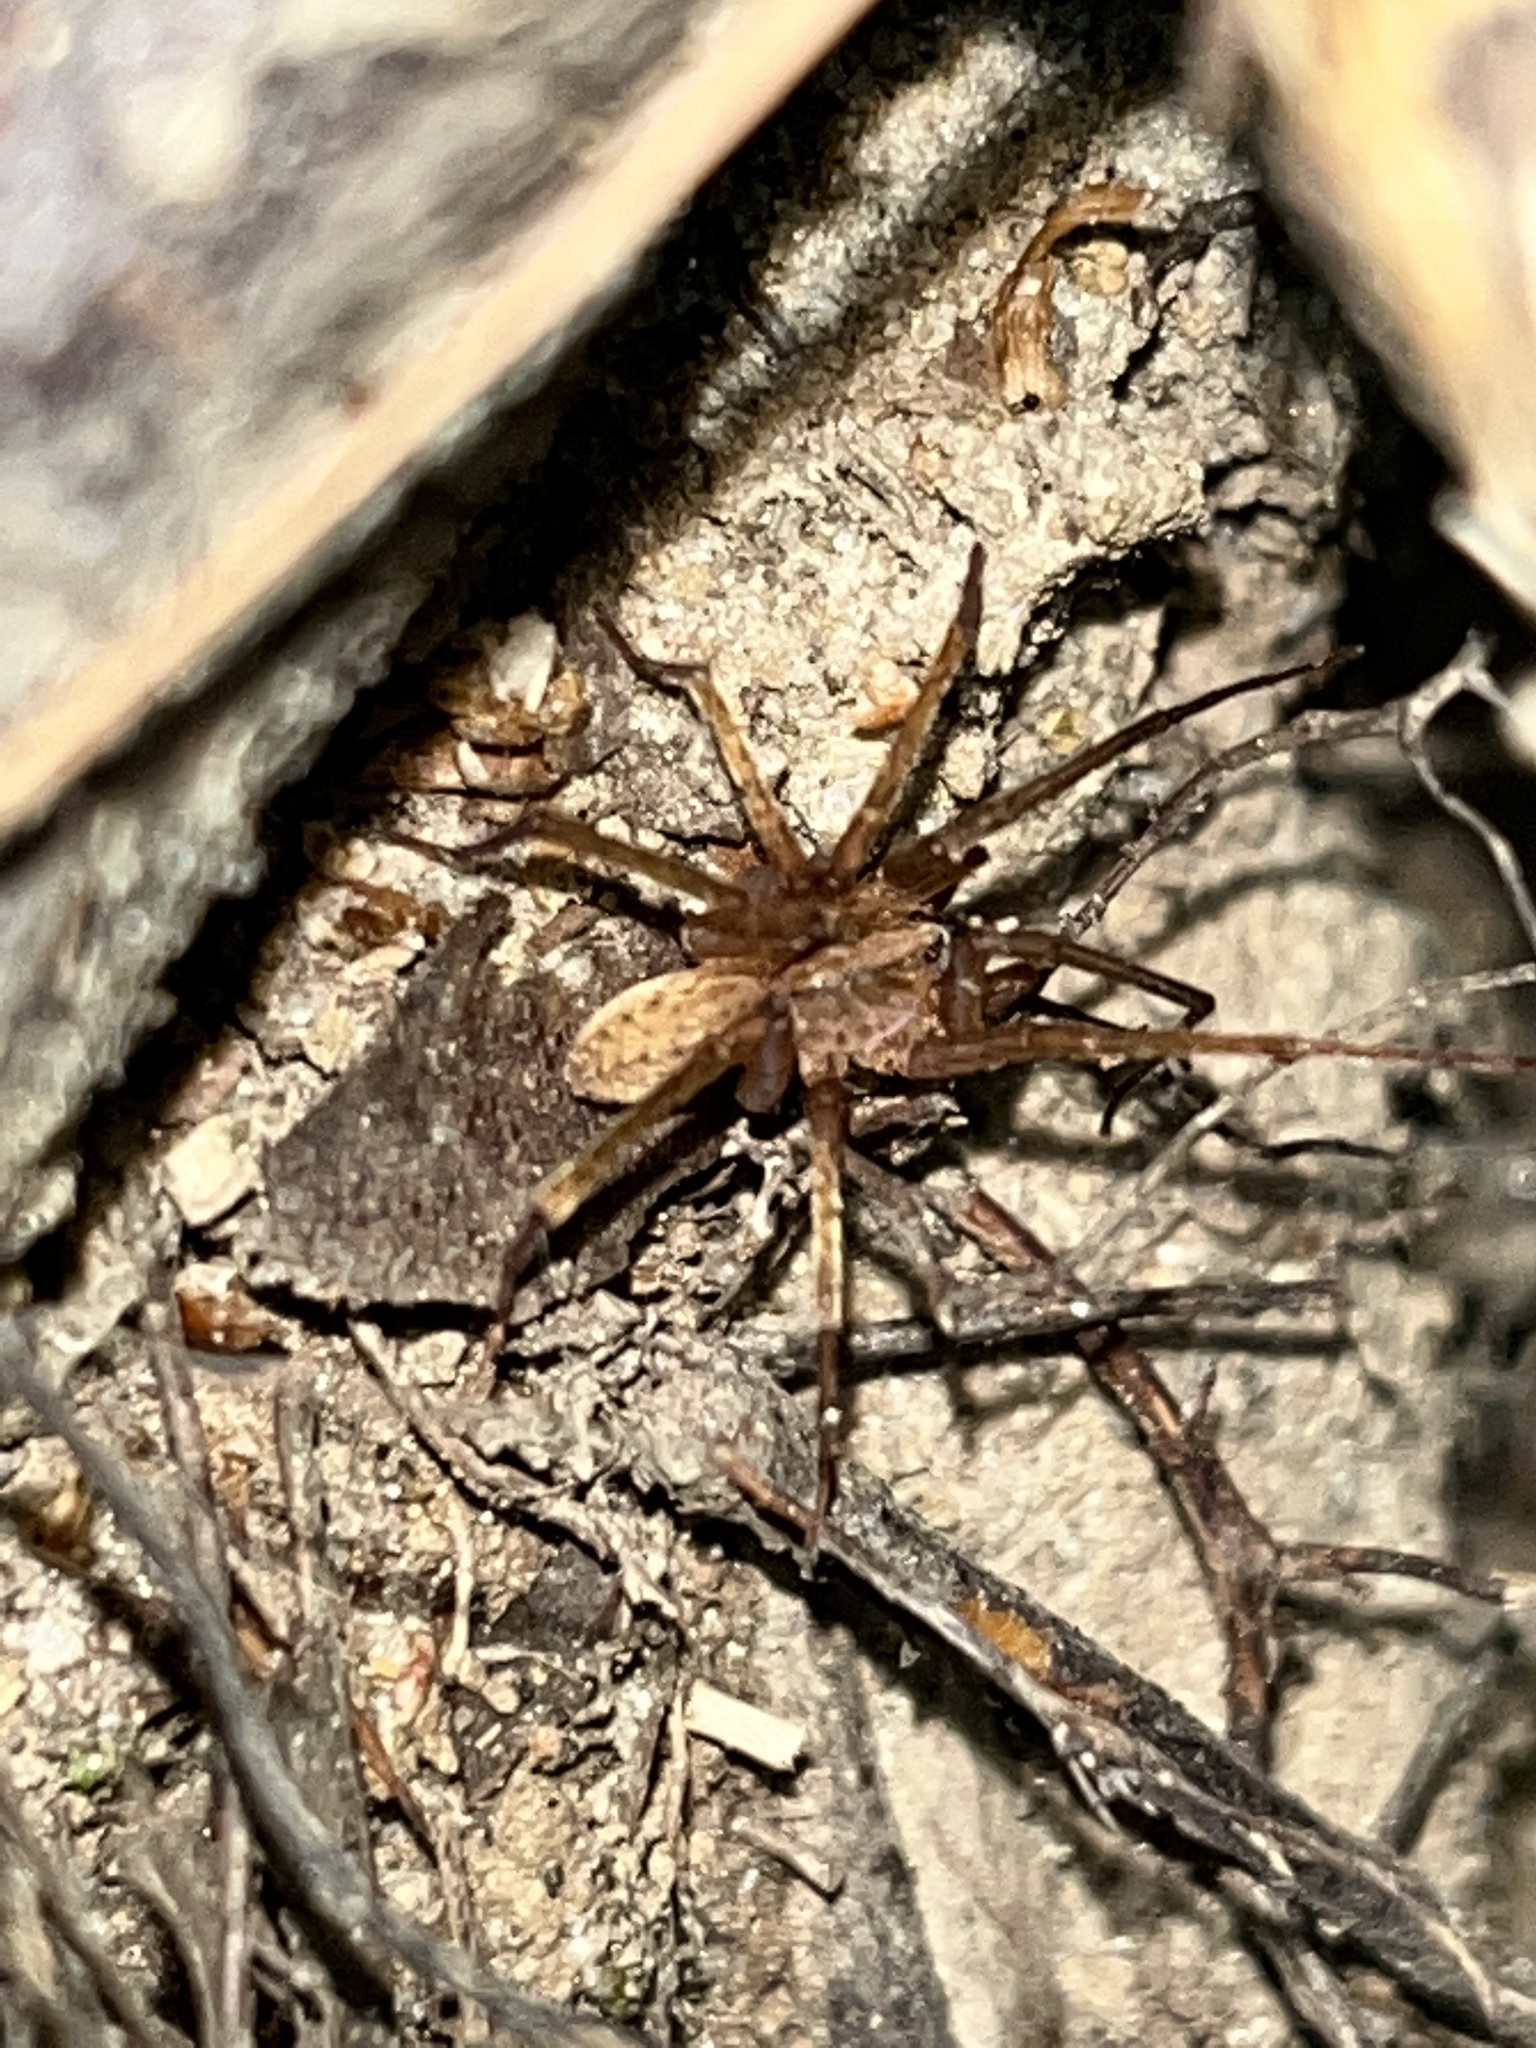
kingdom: Animalia
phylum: Arthropoda
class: Arachnida
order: Araneae
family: Ctenidae
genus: Anahita
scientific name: Anahita punctulata
